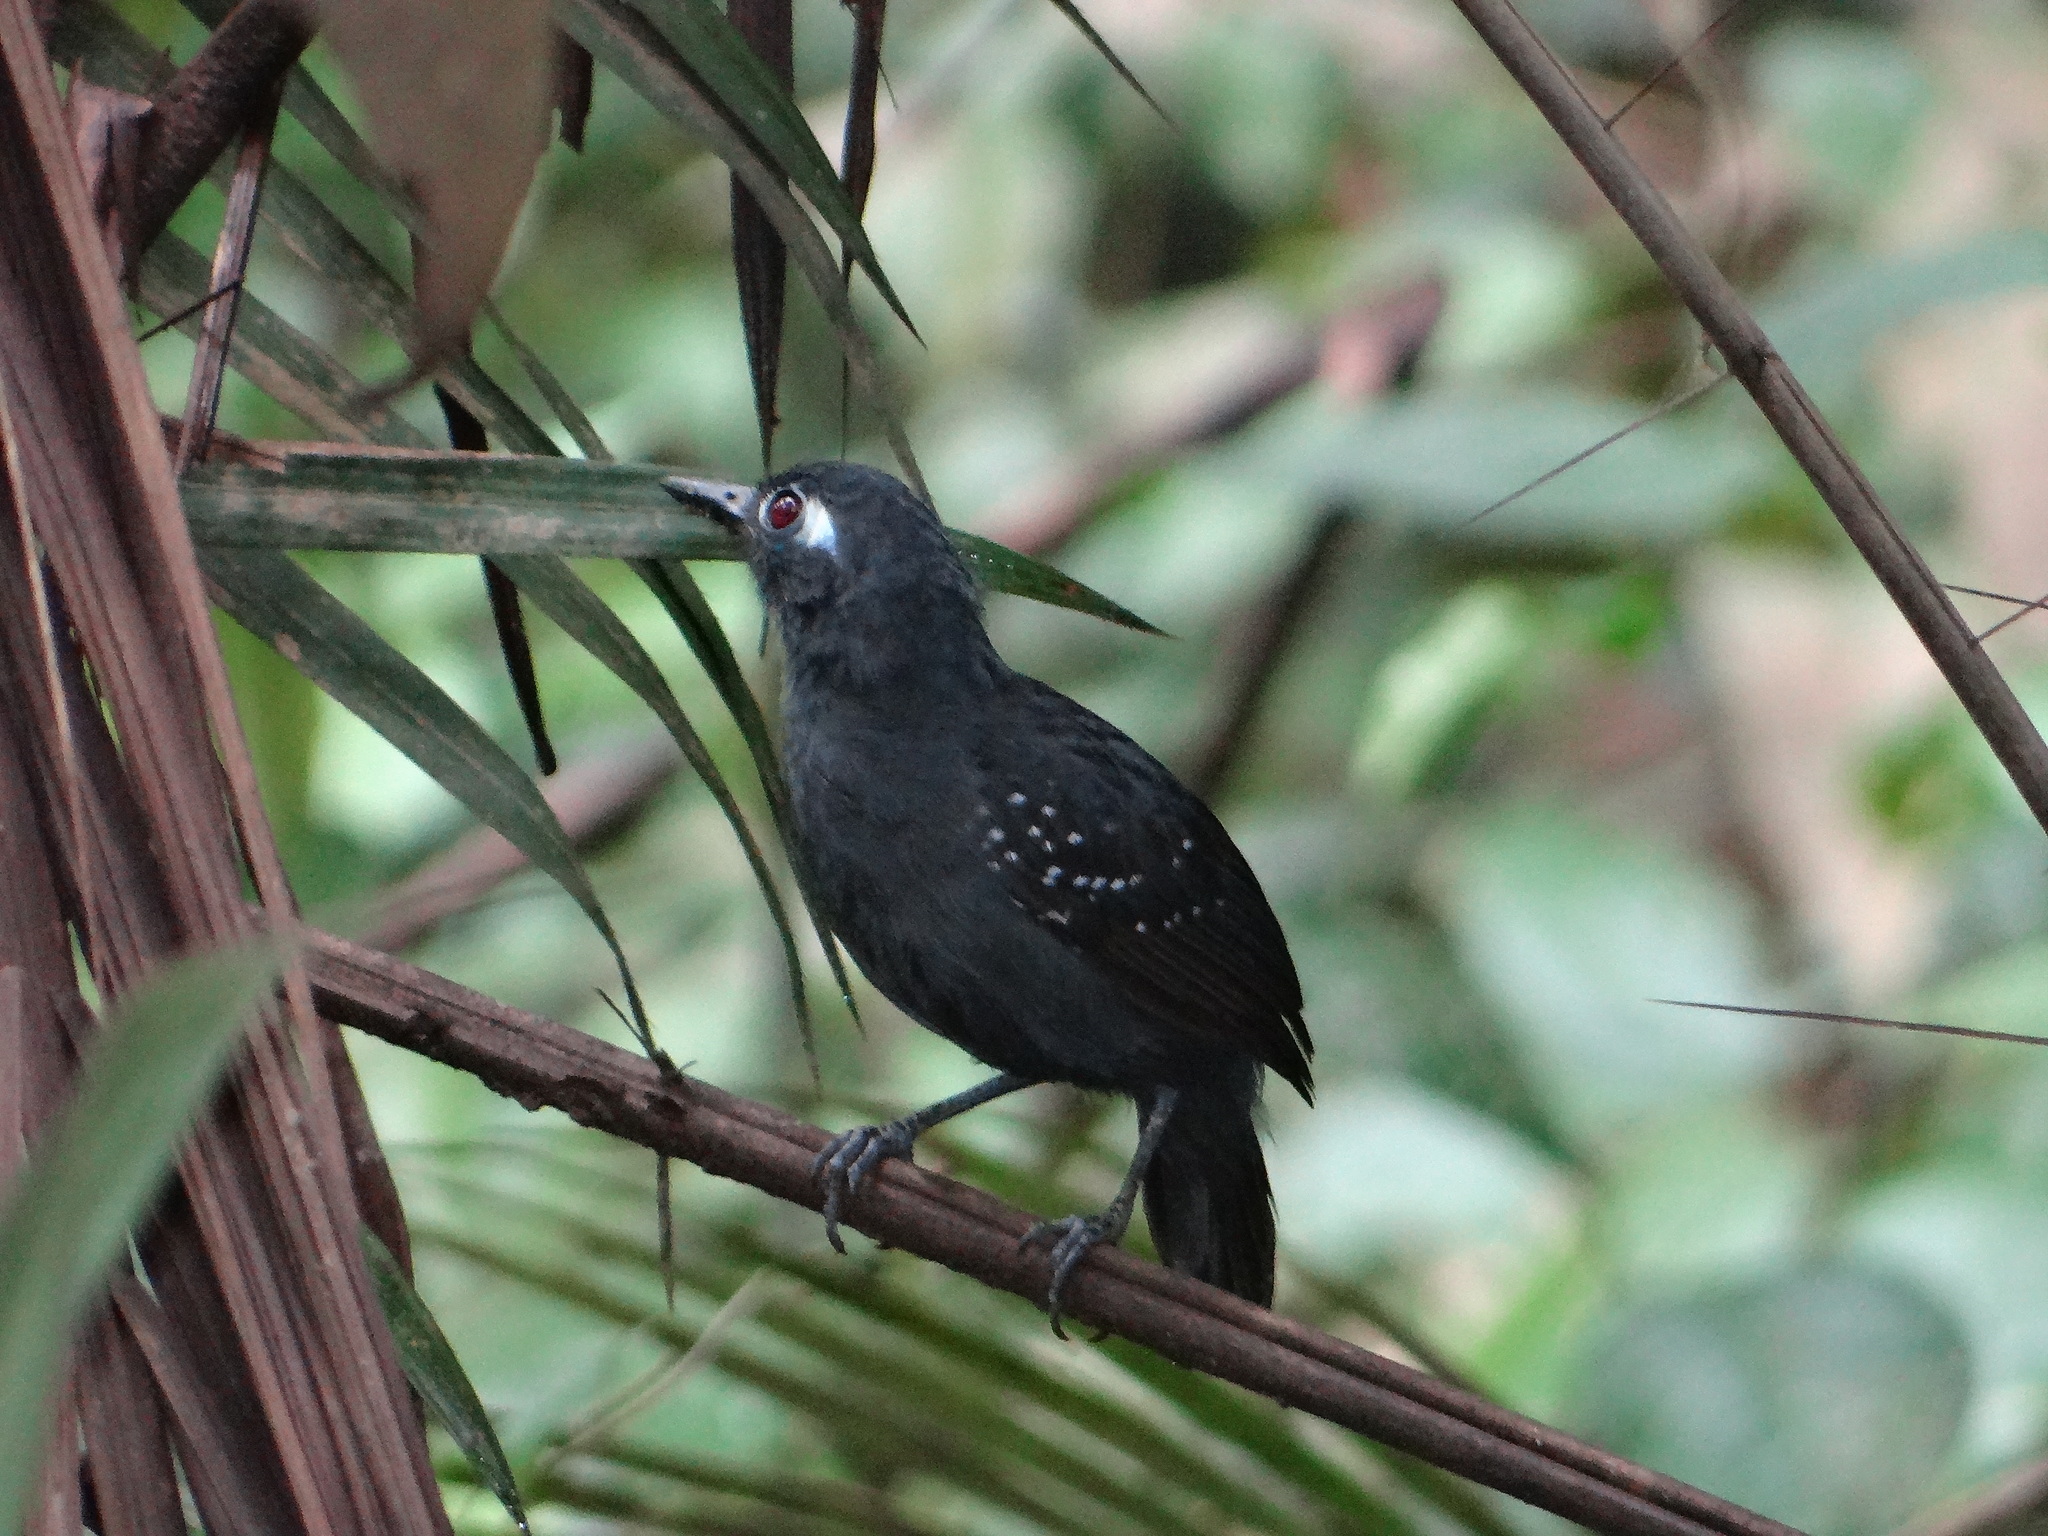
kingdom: Animalia
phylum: Chordata
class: Aves
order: Passeriformes
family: Thamnophilidae
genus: Myrmeciza
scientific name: Myrmeciza hyperythra
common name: Plumbeous antbird
